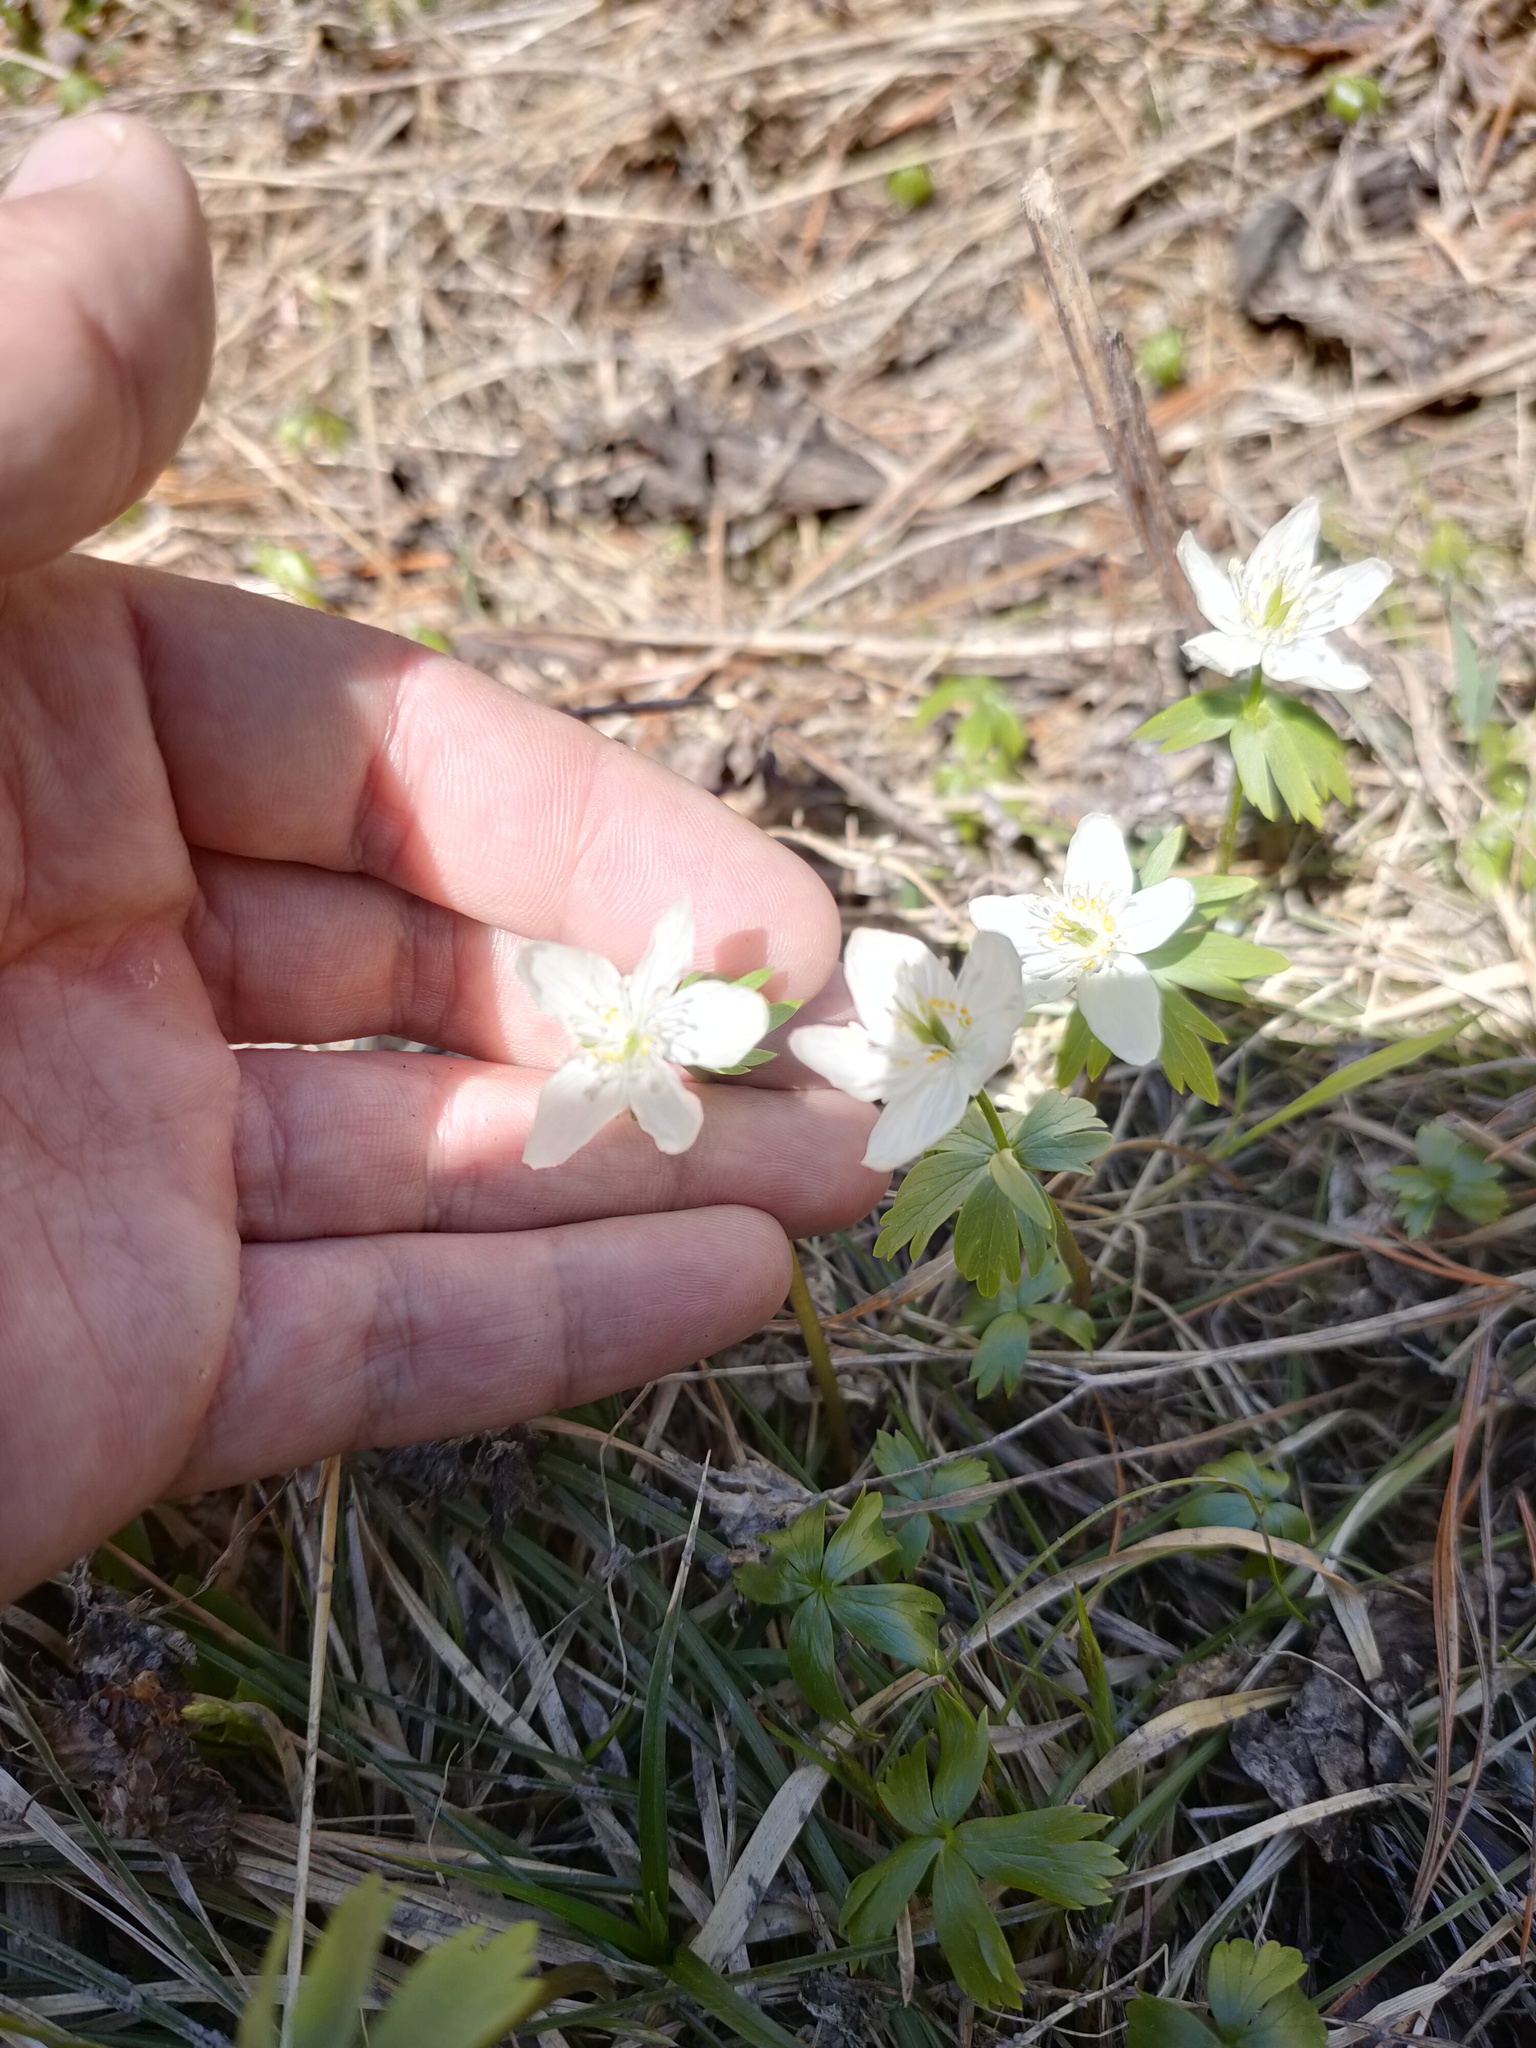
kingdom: Plantae
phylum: Tracheophyta
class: Magnoliopsida
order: Ranunculales
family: Ranunculaceae
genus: Eranthis
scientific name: Eranthis tanhoensis
